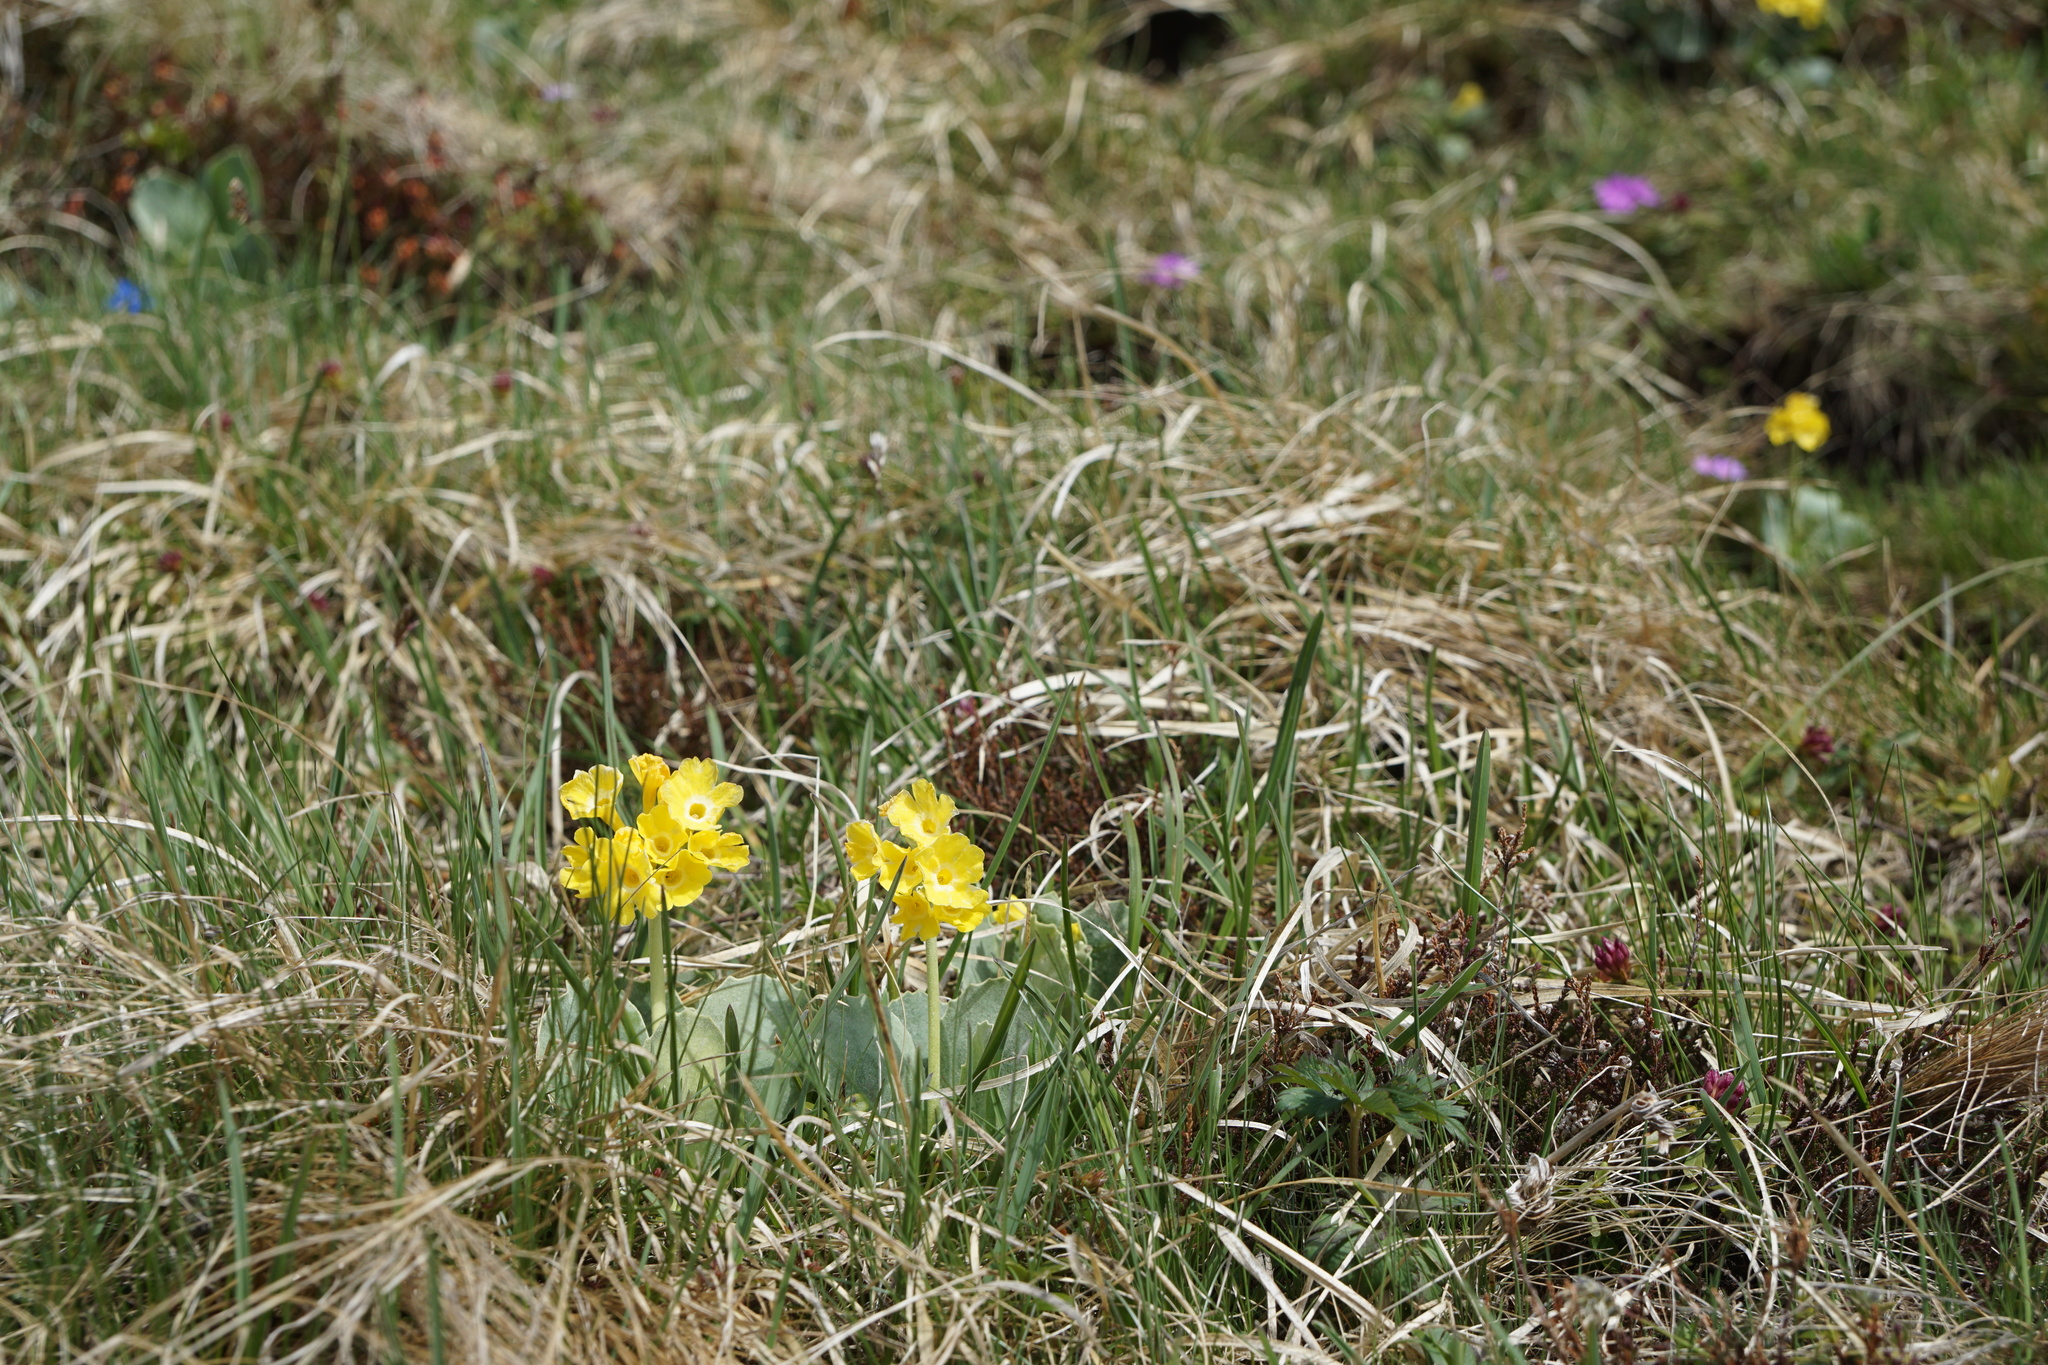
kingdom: Plantae
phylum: Tracheophyta
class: Magnoliopsida
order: Ericales
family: Primulaceae
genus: Primula
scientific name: Primula auricula
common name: Auricula
